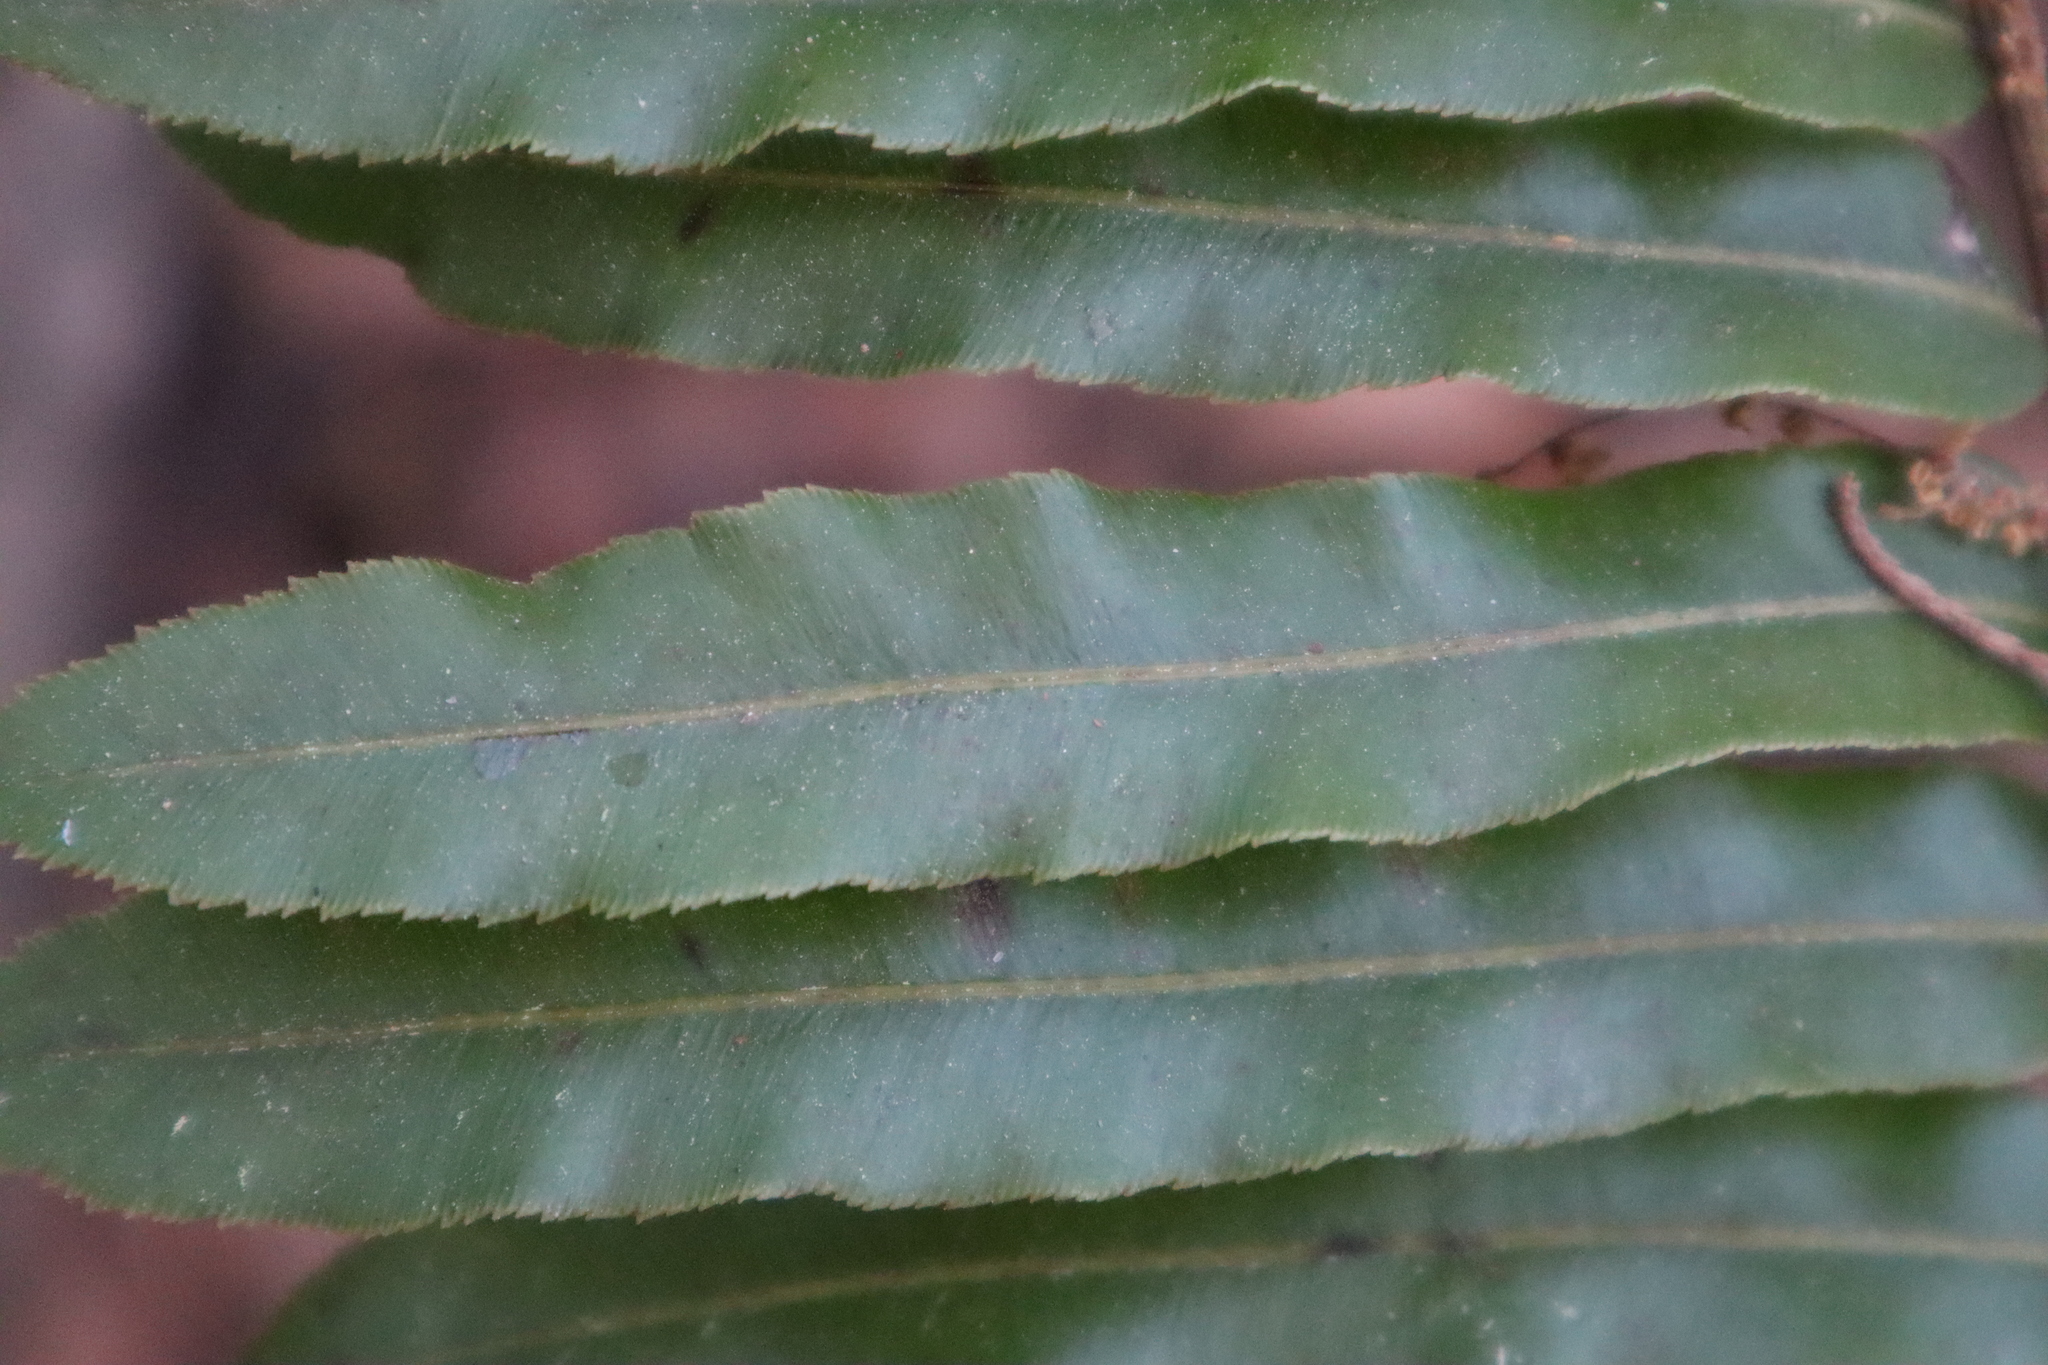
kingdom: Plantae
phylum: Tracheophyta
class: Polypodiopsida
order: Polypodiales
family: Blechnaceae
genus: Telmatoblechnum
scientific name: Telmatoblechnum serrulatum
